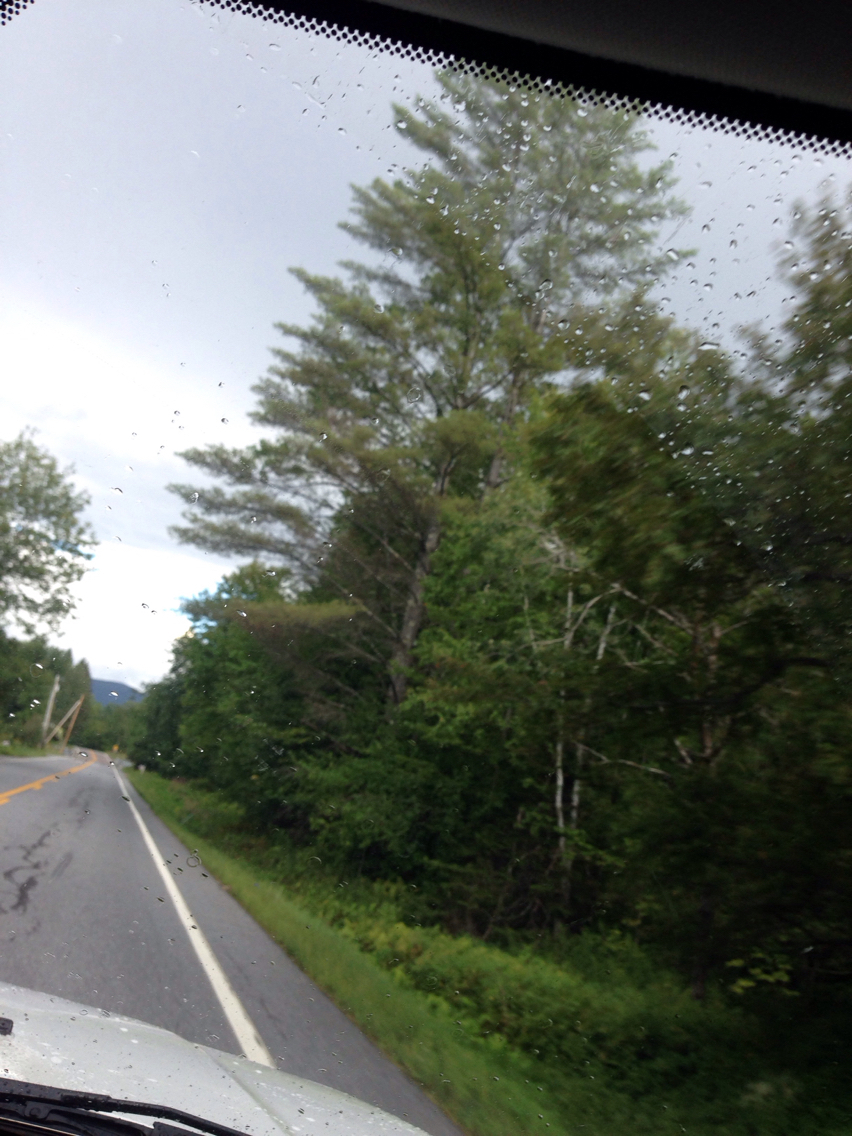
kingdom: Plantae
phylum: Tracheophyta
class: Pinopsida
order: Pinales
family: Pinaceae
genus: Pinus
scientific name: Pinus strobus
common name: Weymouth pine
